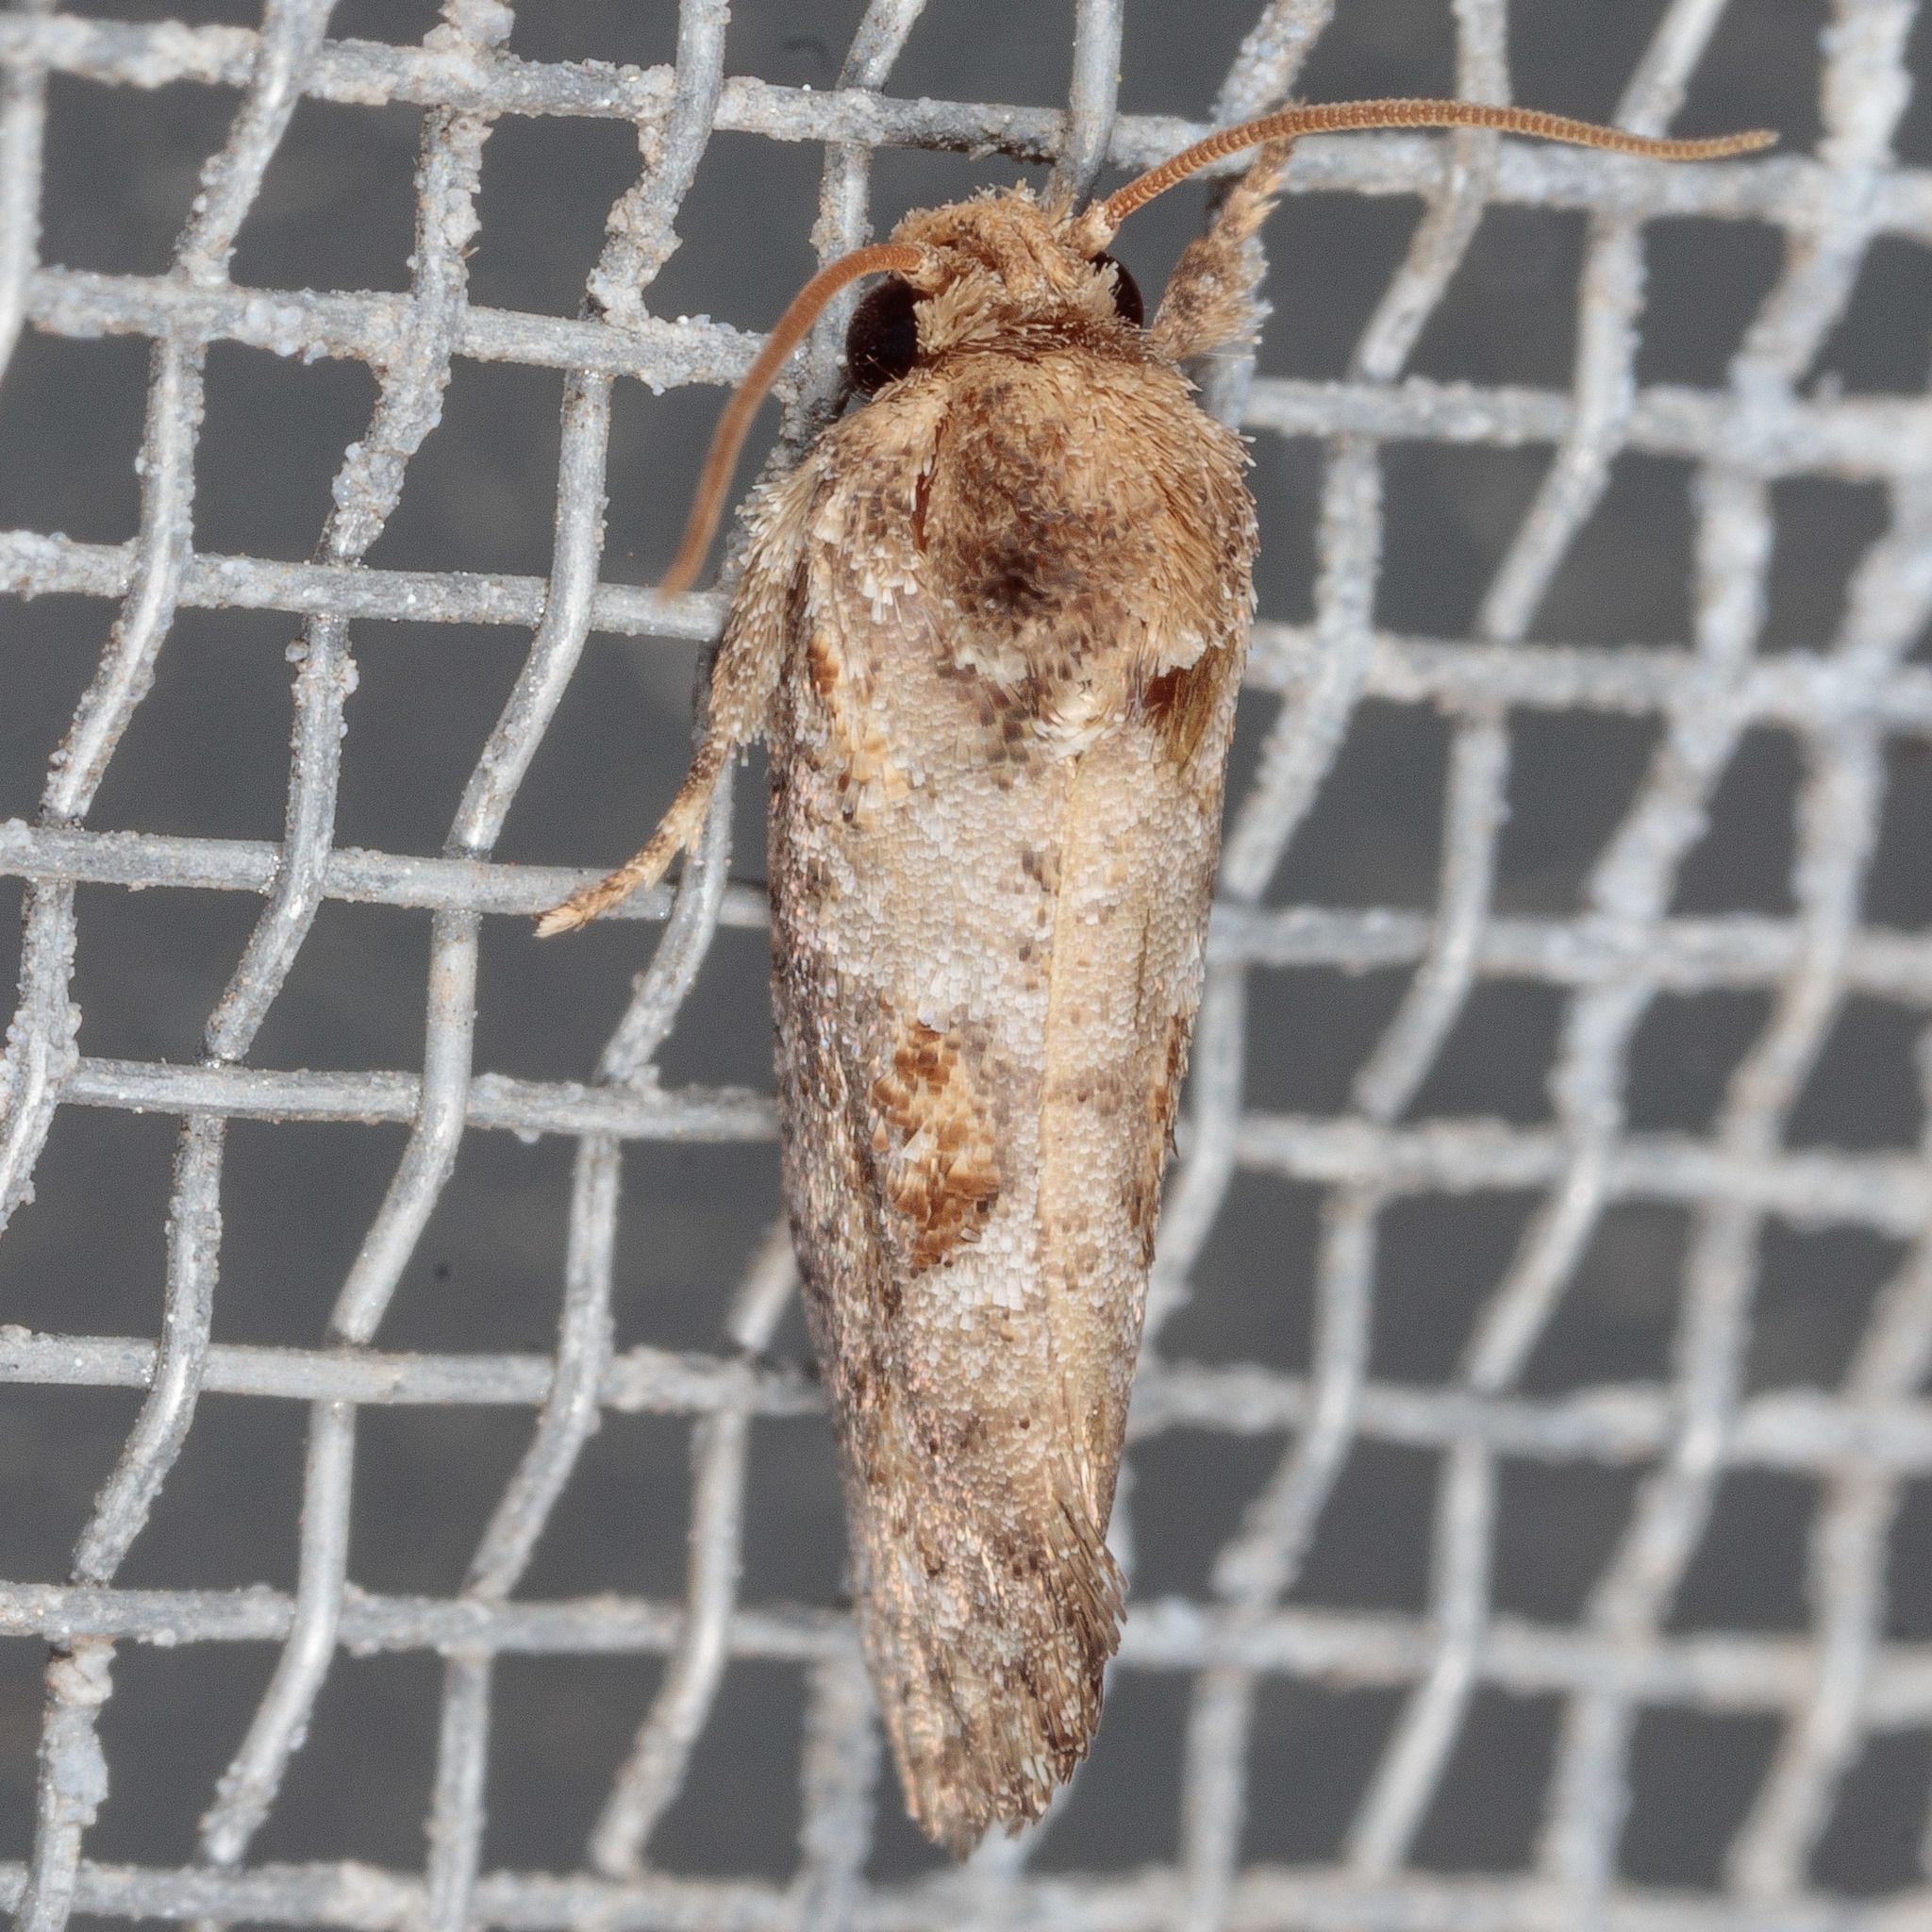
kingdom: Animalia
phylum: Arthropoda
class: Insecta
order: Lepidoptera
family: Tineidae
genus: Acrolophus
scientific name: Acrolophus piger
